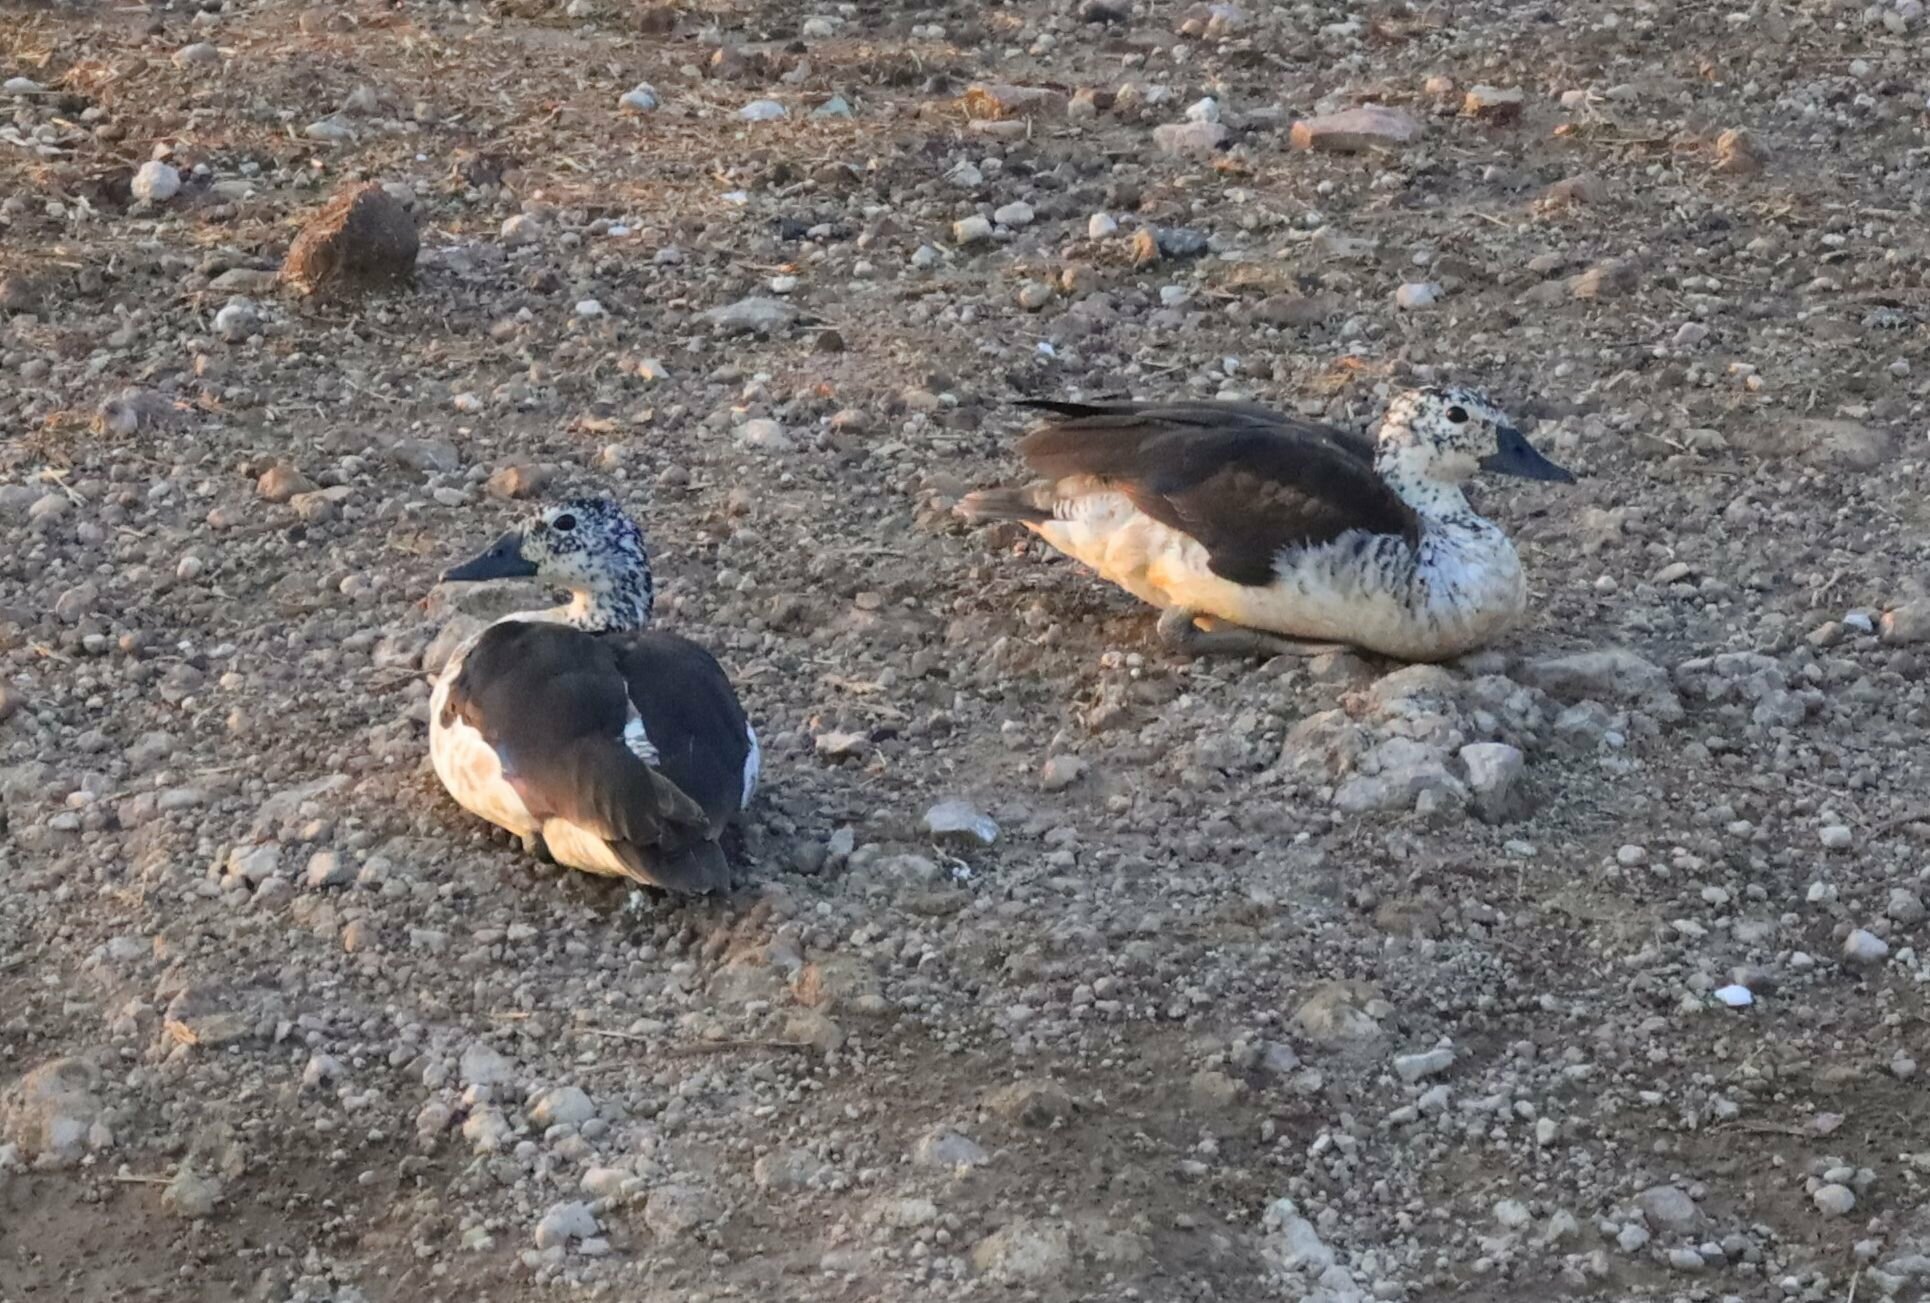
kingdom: Animalia
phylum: Chordata
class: Aves
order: Anseriformes
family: Anatidae
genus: Sarkidiornis
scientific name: Sarkidiornis melanotos
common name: Comb duck
